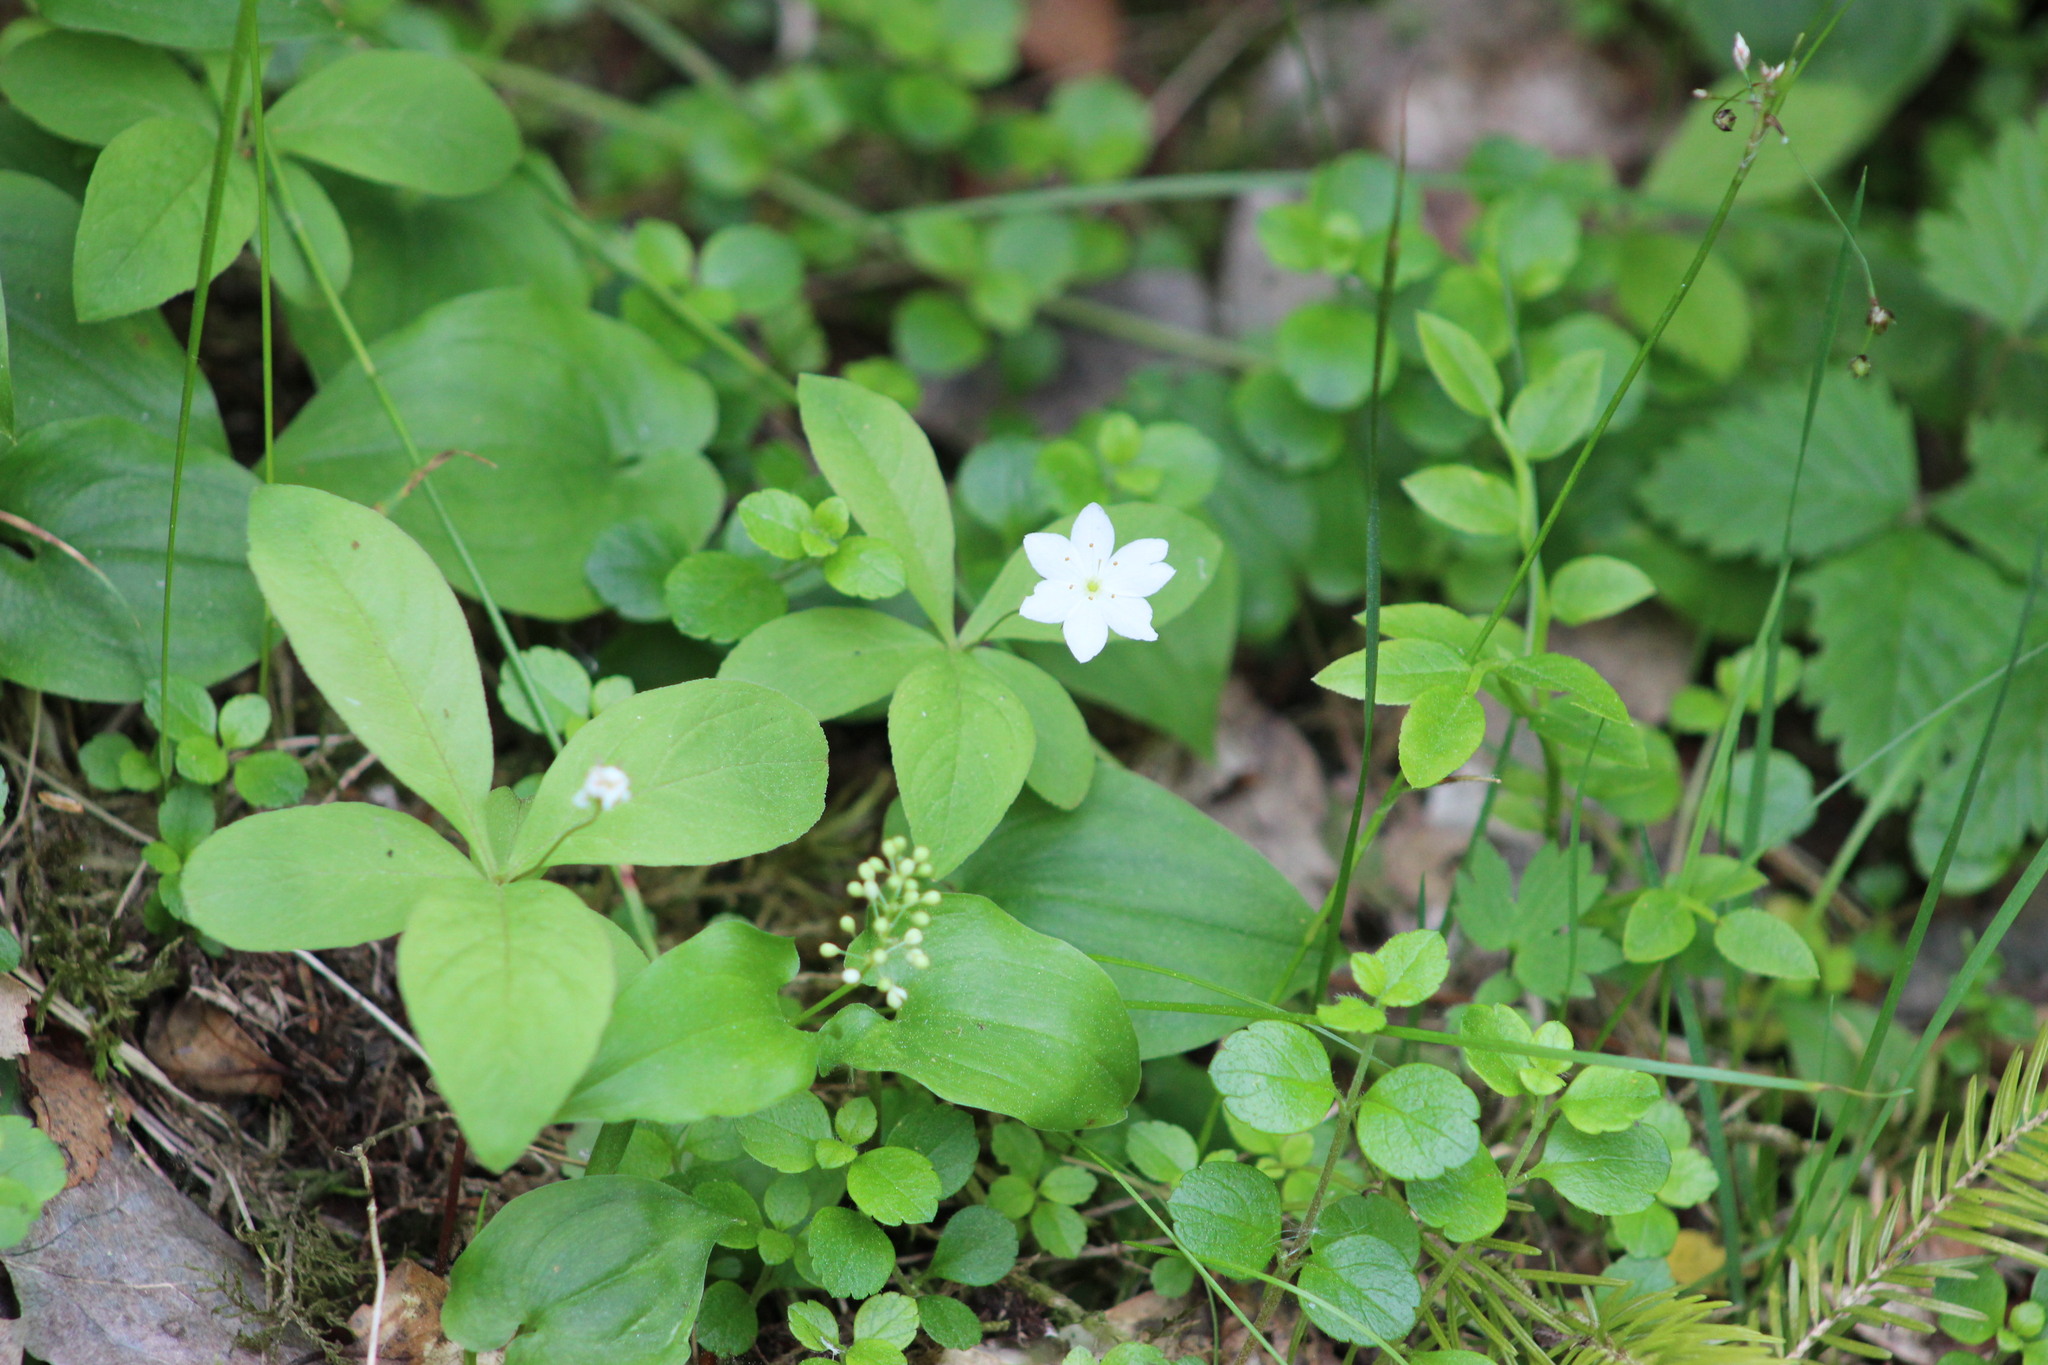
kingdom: Plantae
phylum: Tracheophyta
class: Magnoliopsida
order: Ericales
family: Primulaceae
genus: Lysimachia
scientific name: Lysimachia europaea
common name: Arctic starflower
